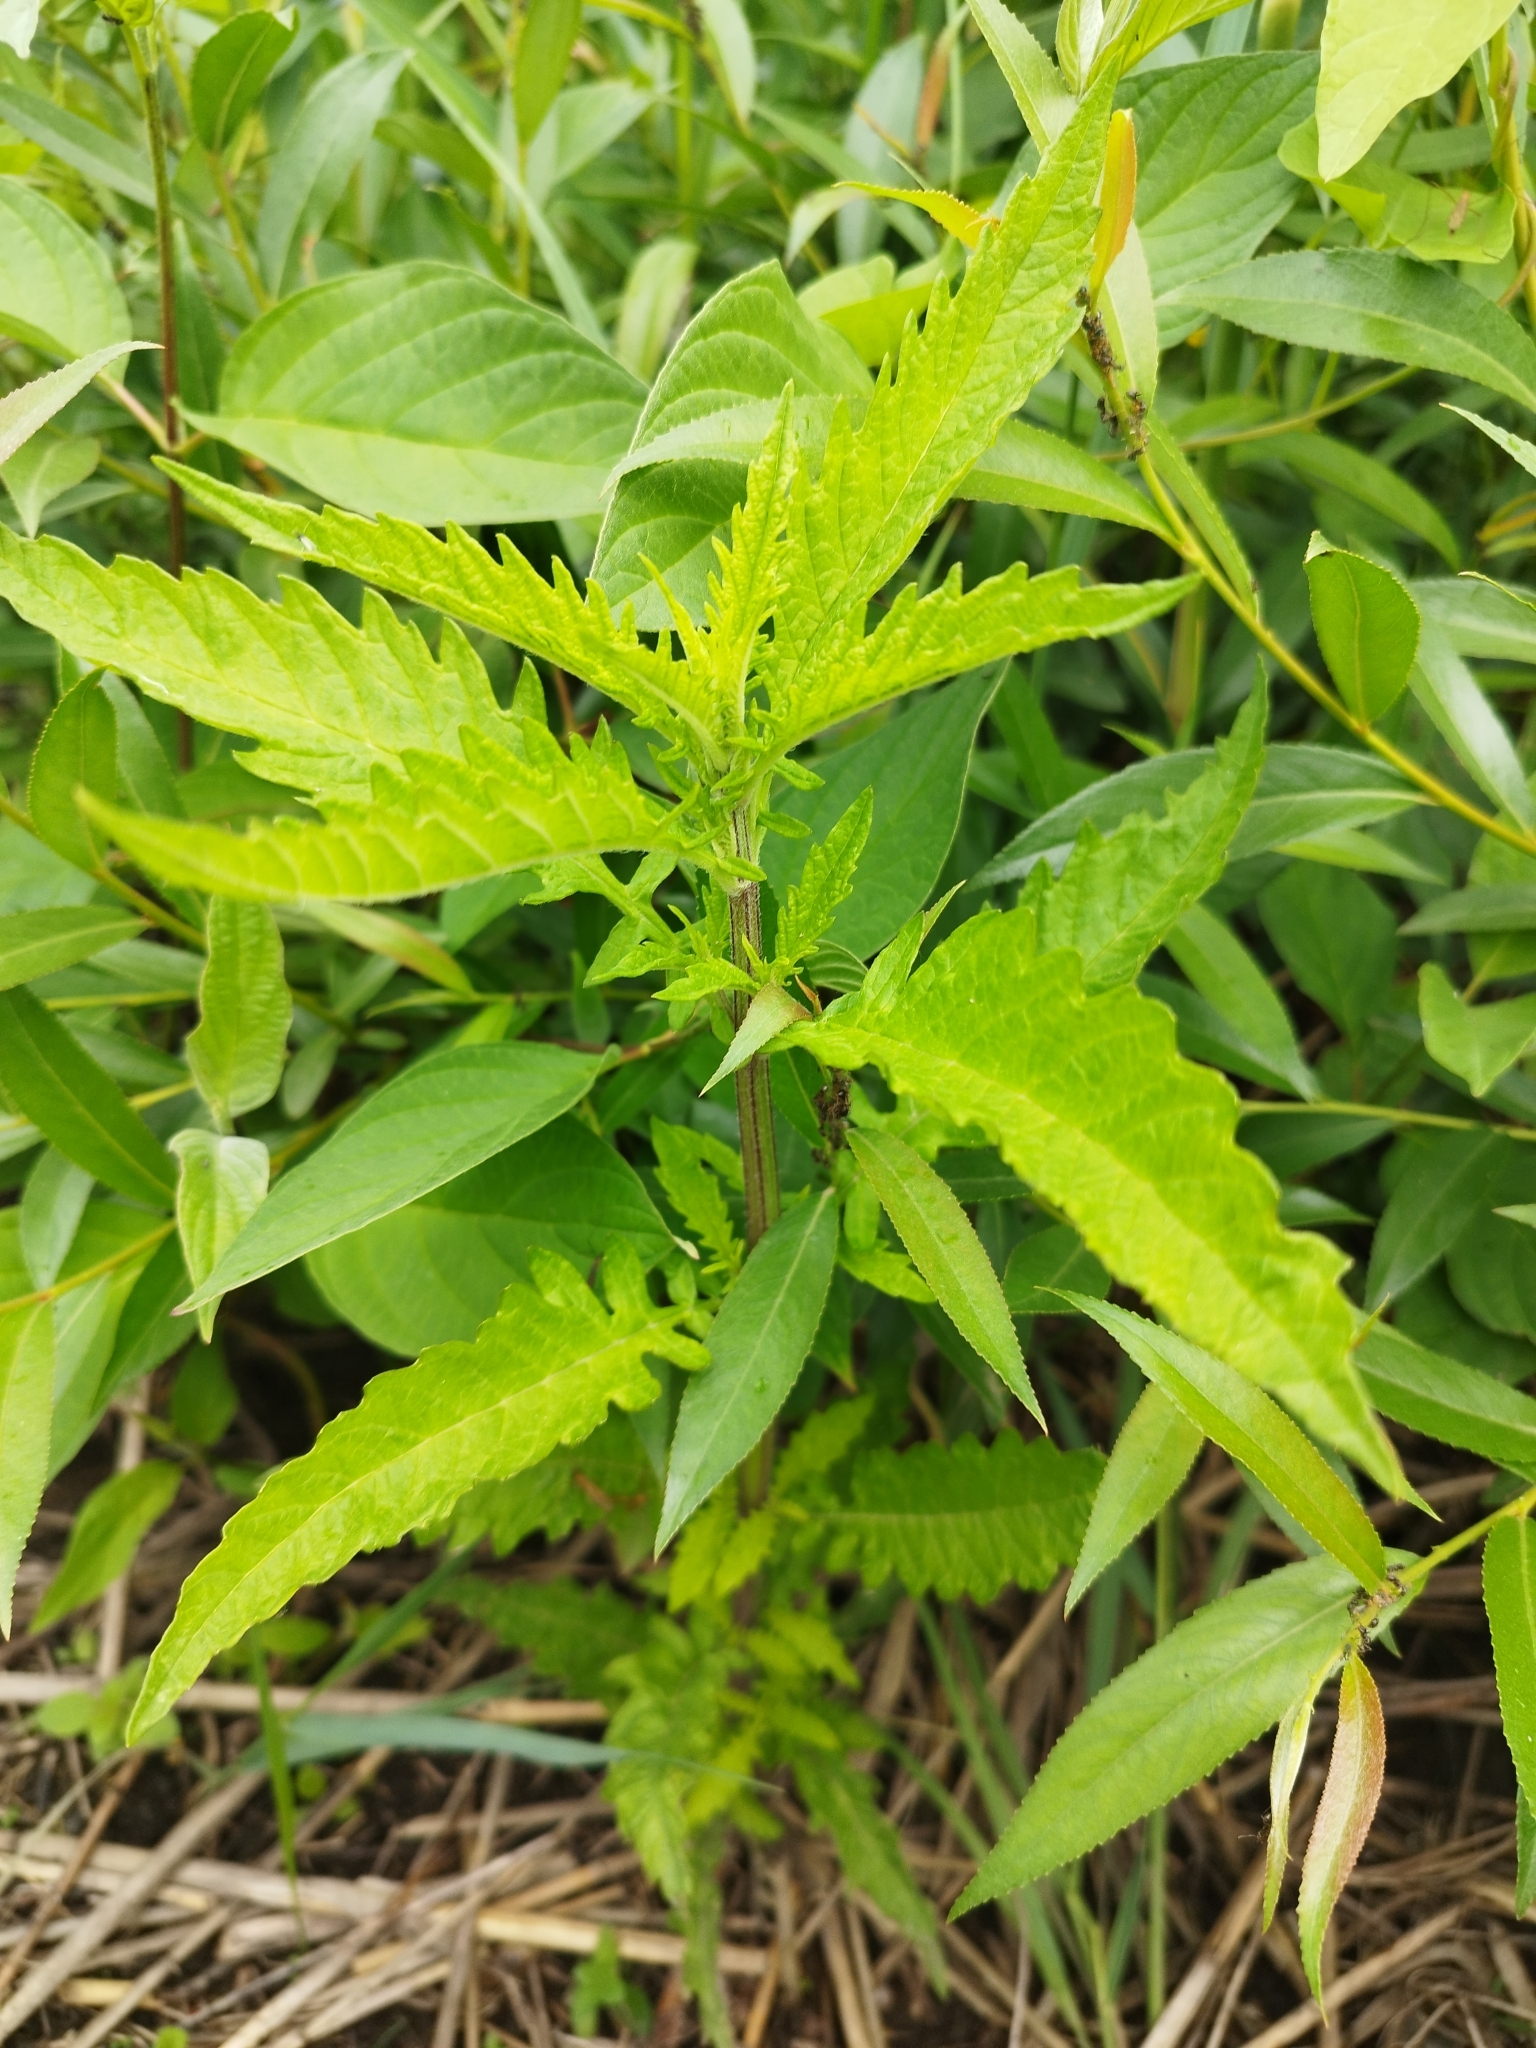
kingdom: Plantae
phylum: Tracheophyta
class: Magnoliopsida
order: Lamiales
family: Lamiaceae
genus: Lycopus
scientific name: Lycopus europaeus
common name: European bugleweed
